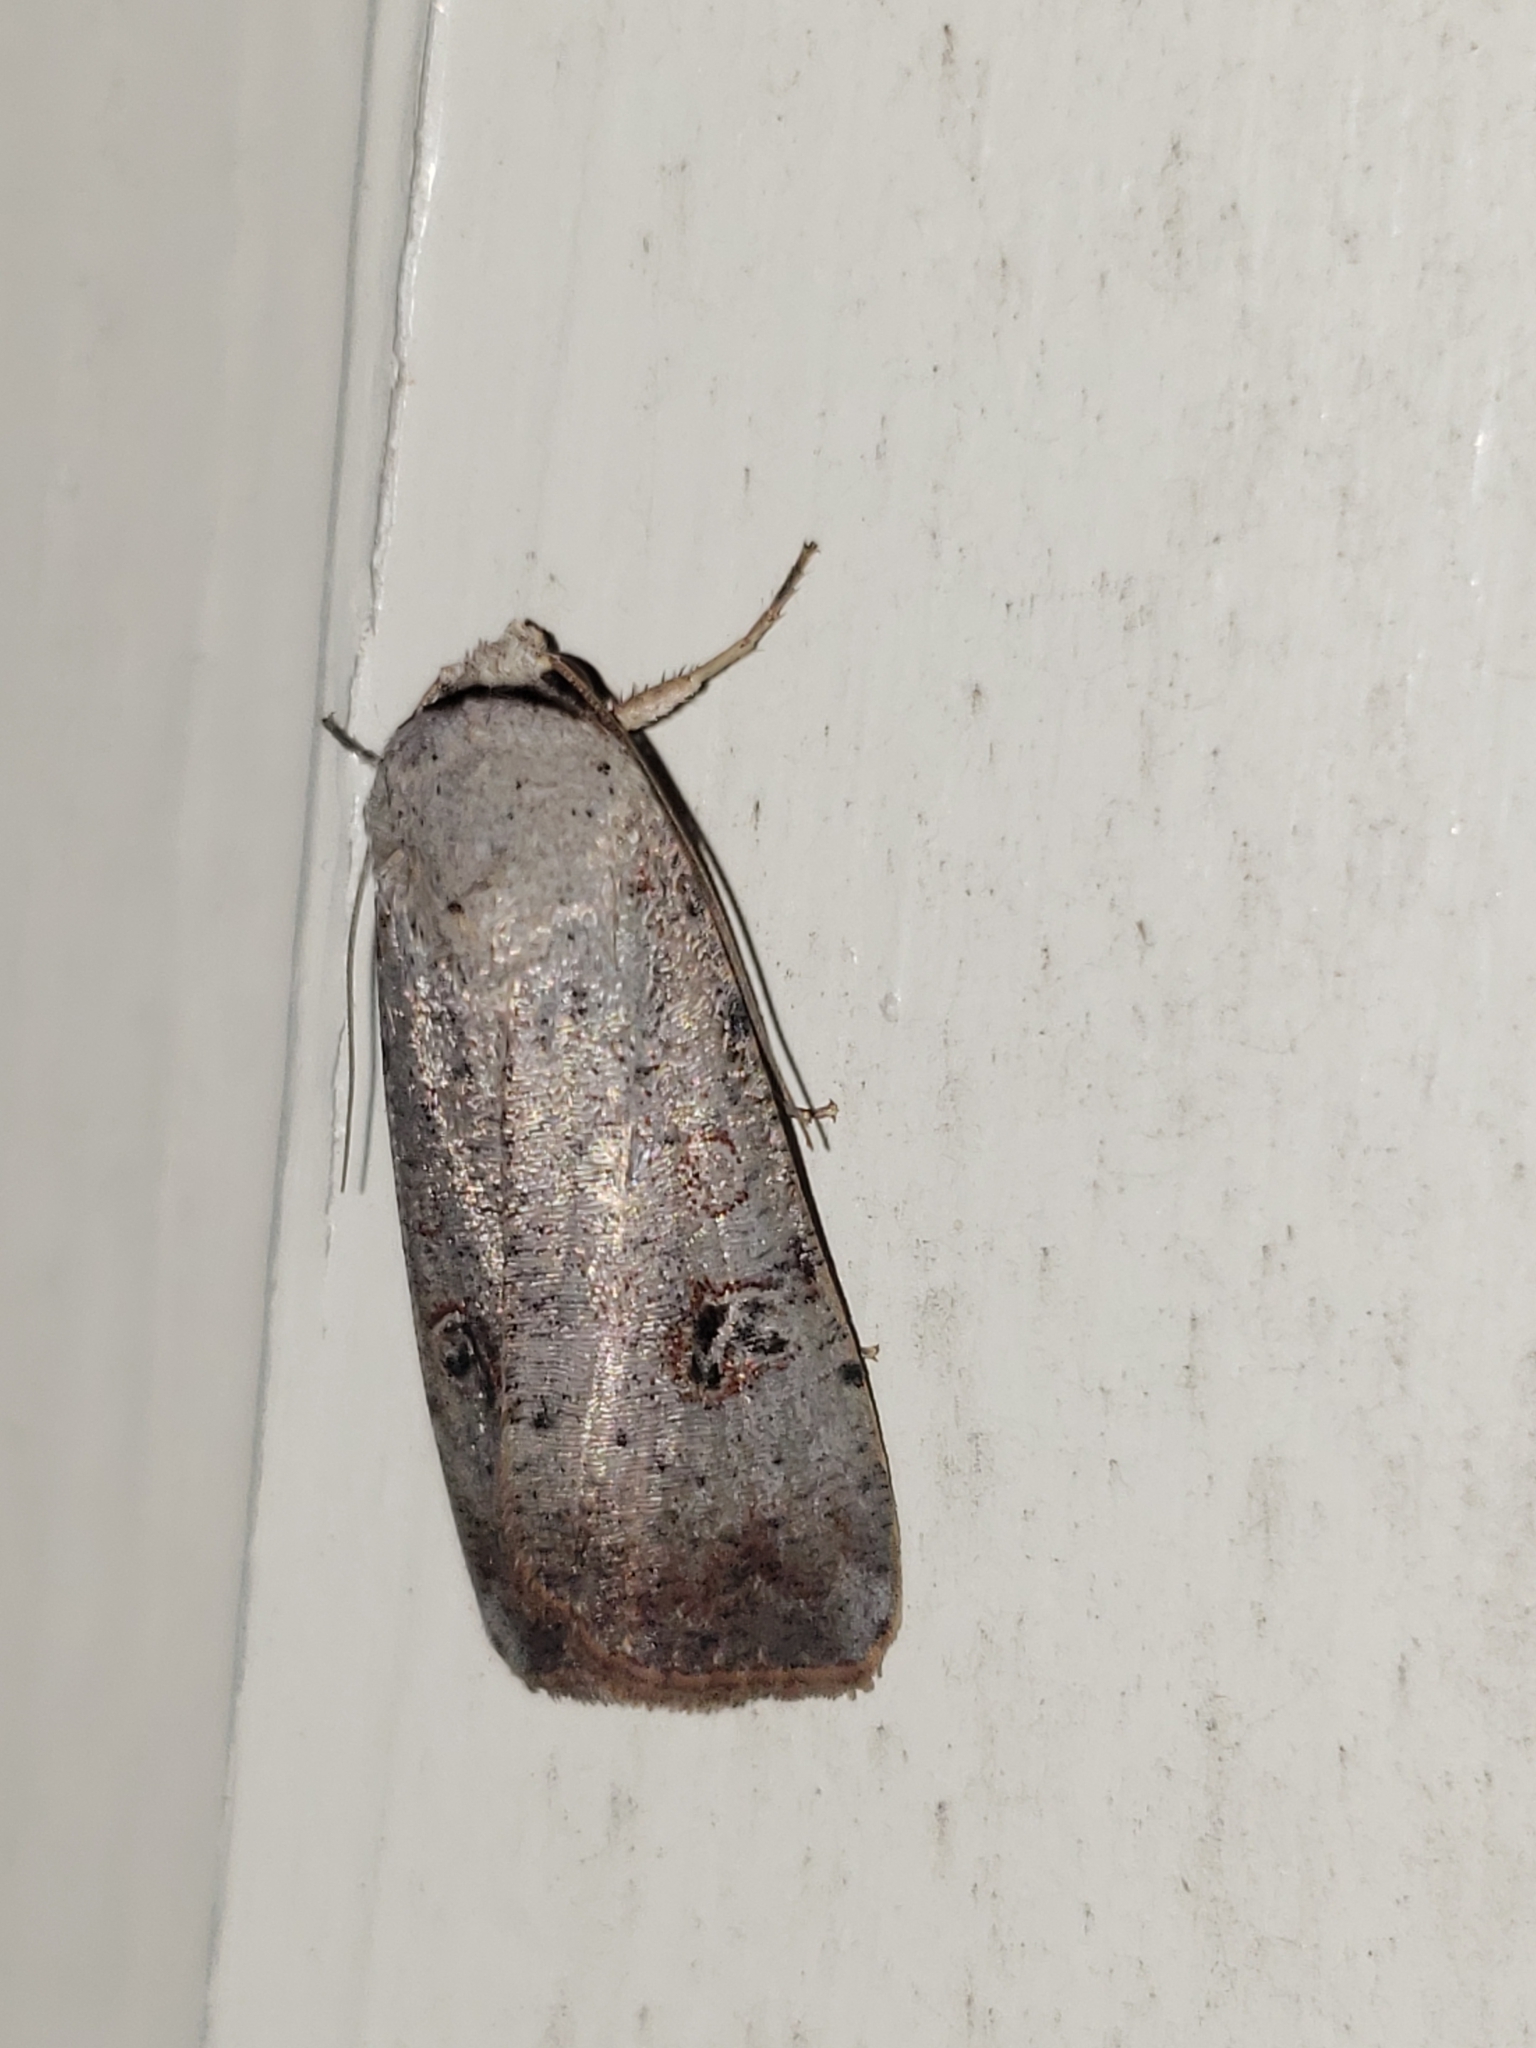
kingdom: Animalia
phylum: Arthropoda
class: Insecta
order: Lepidoptera
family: Noctuidae
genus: Anicla
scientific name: Anicla infecta
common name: Green cutworm
